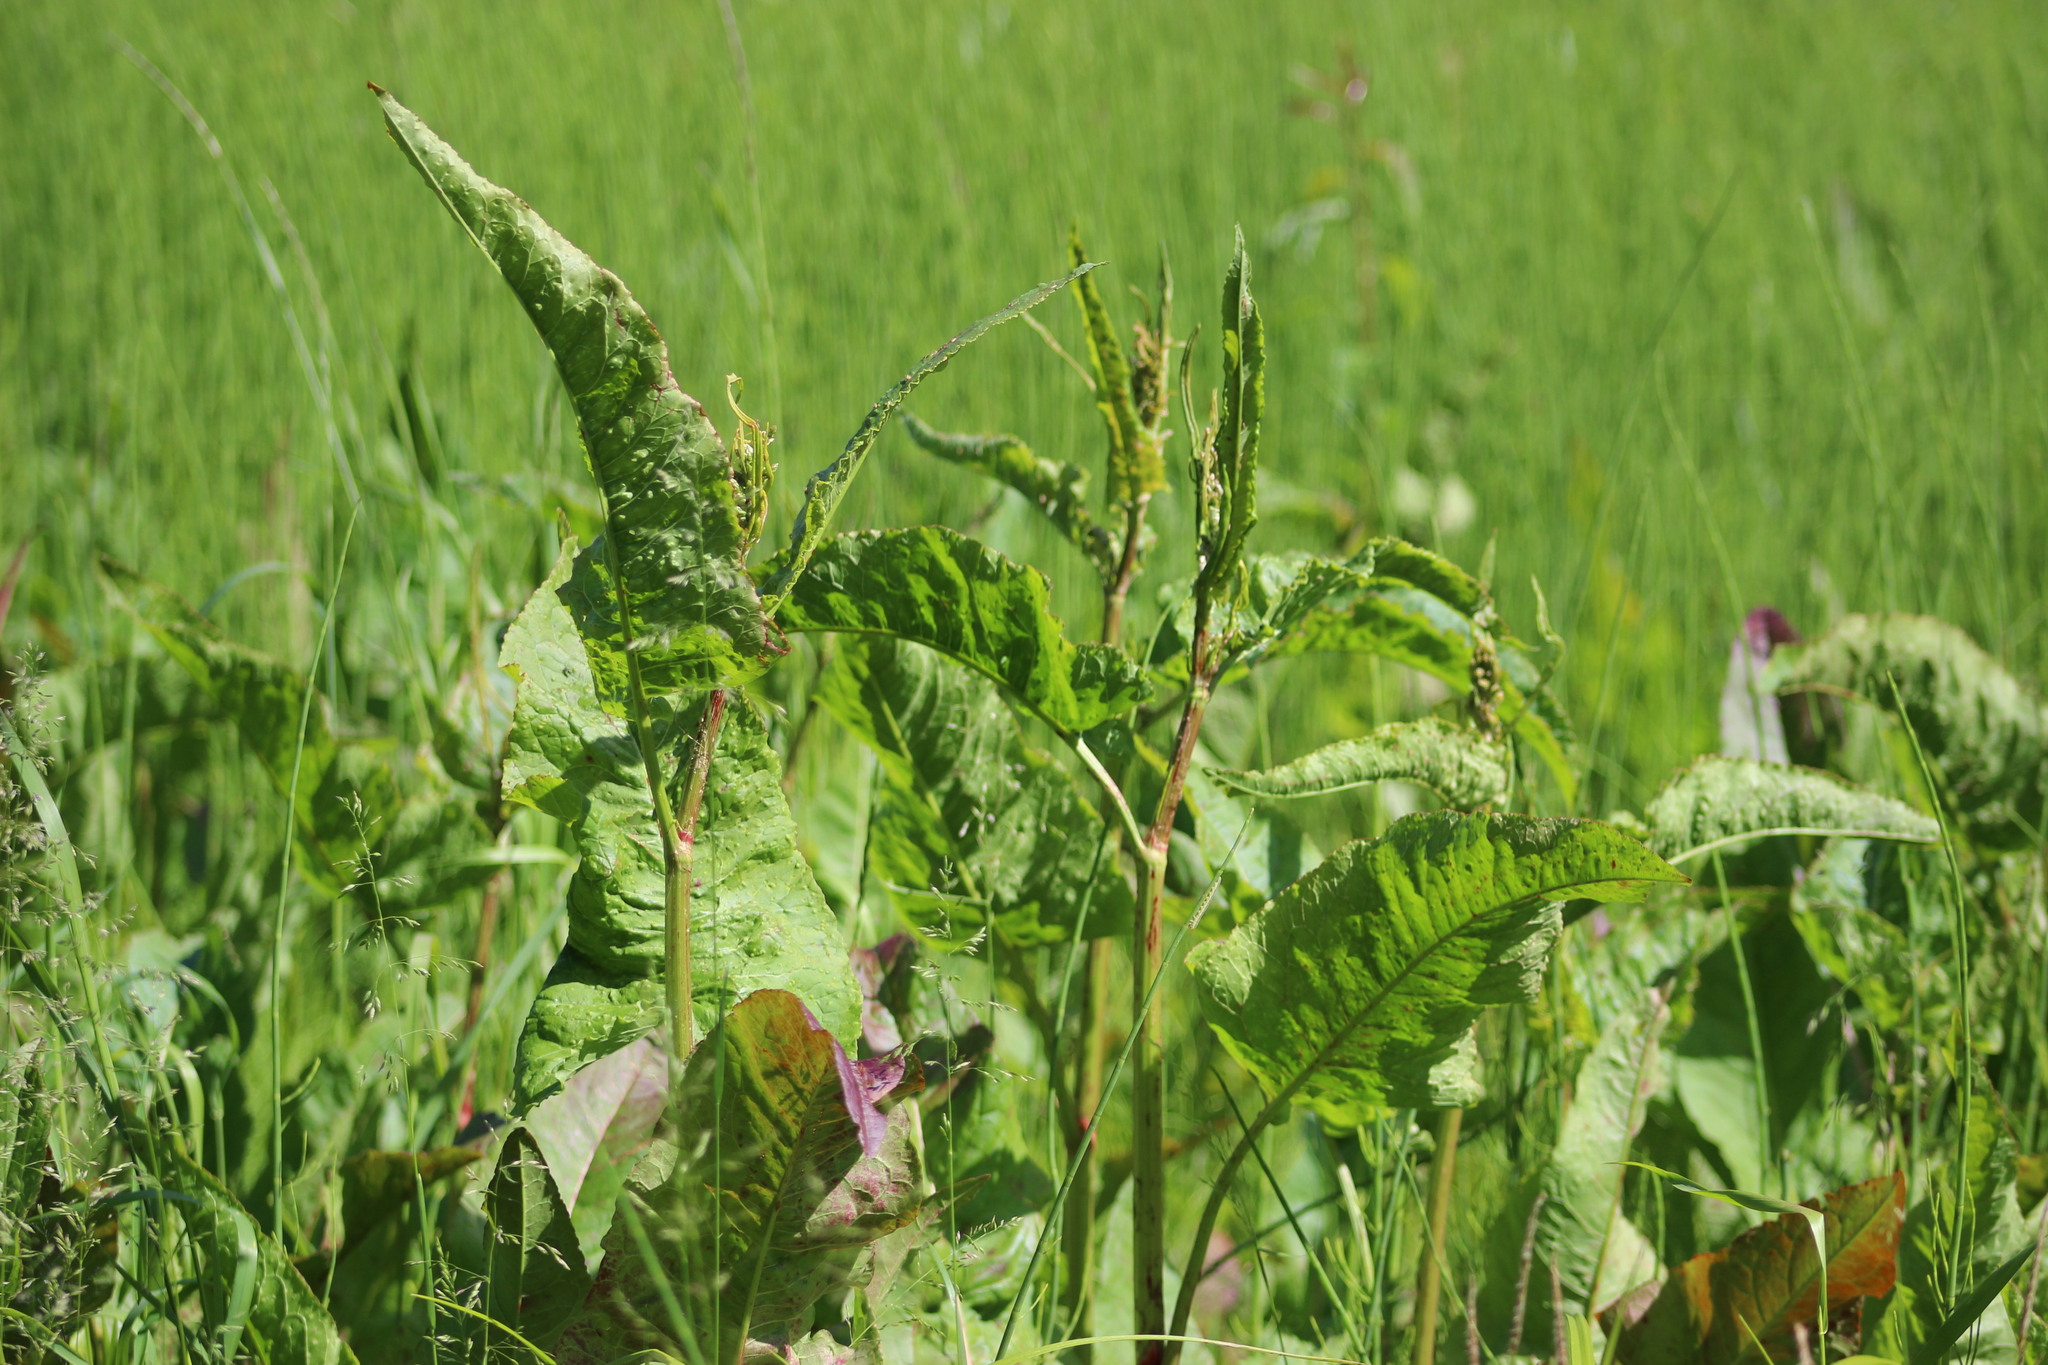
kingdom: Plantae
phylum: Tracheophyta
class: Magnoliopsida
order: Caryophyllales
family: Polygonaceae
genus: Rumex
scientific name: Rumex aquaticus
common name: Scottish dock
